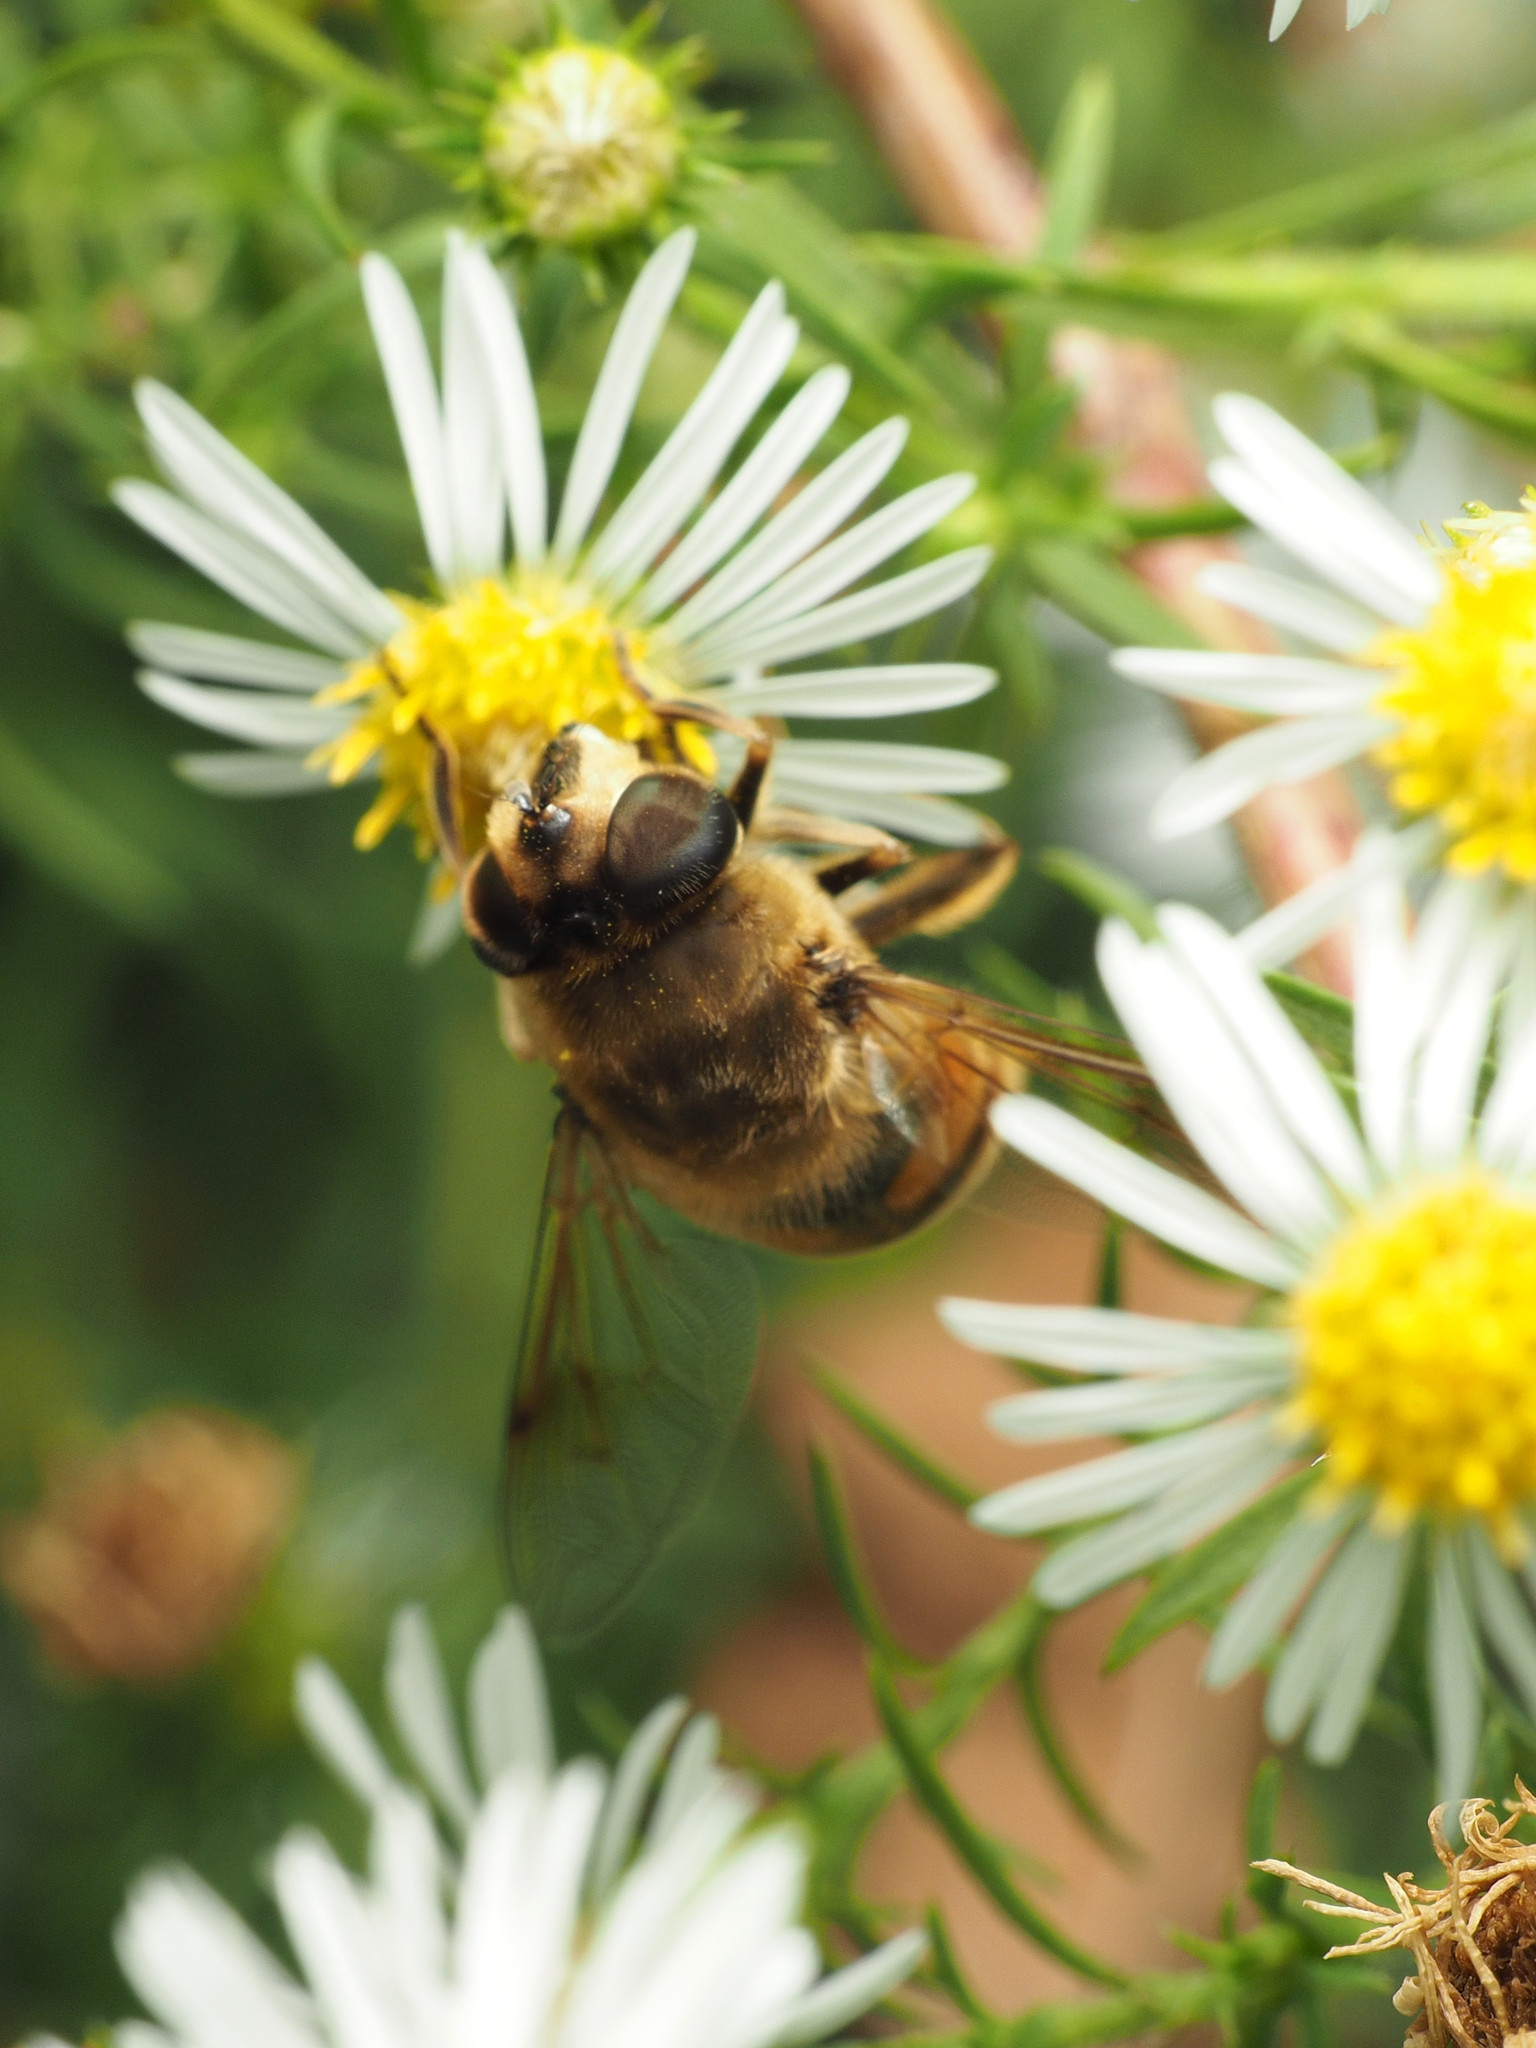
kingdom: Animalia
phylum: Arthropoda
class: Insecta
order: Diptera
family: Syrphidae
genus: Eristalis
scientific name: Eristalis tenax
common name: Drone fly
